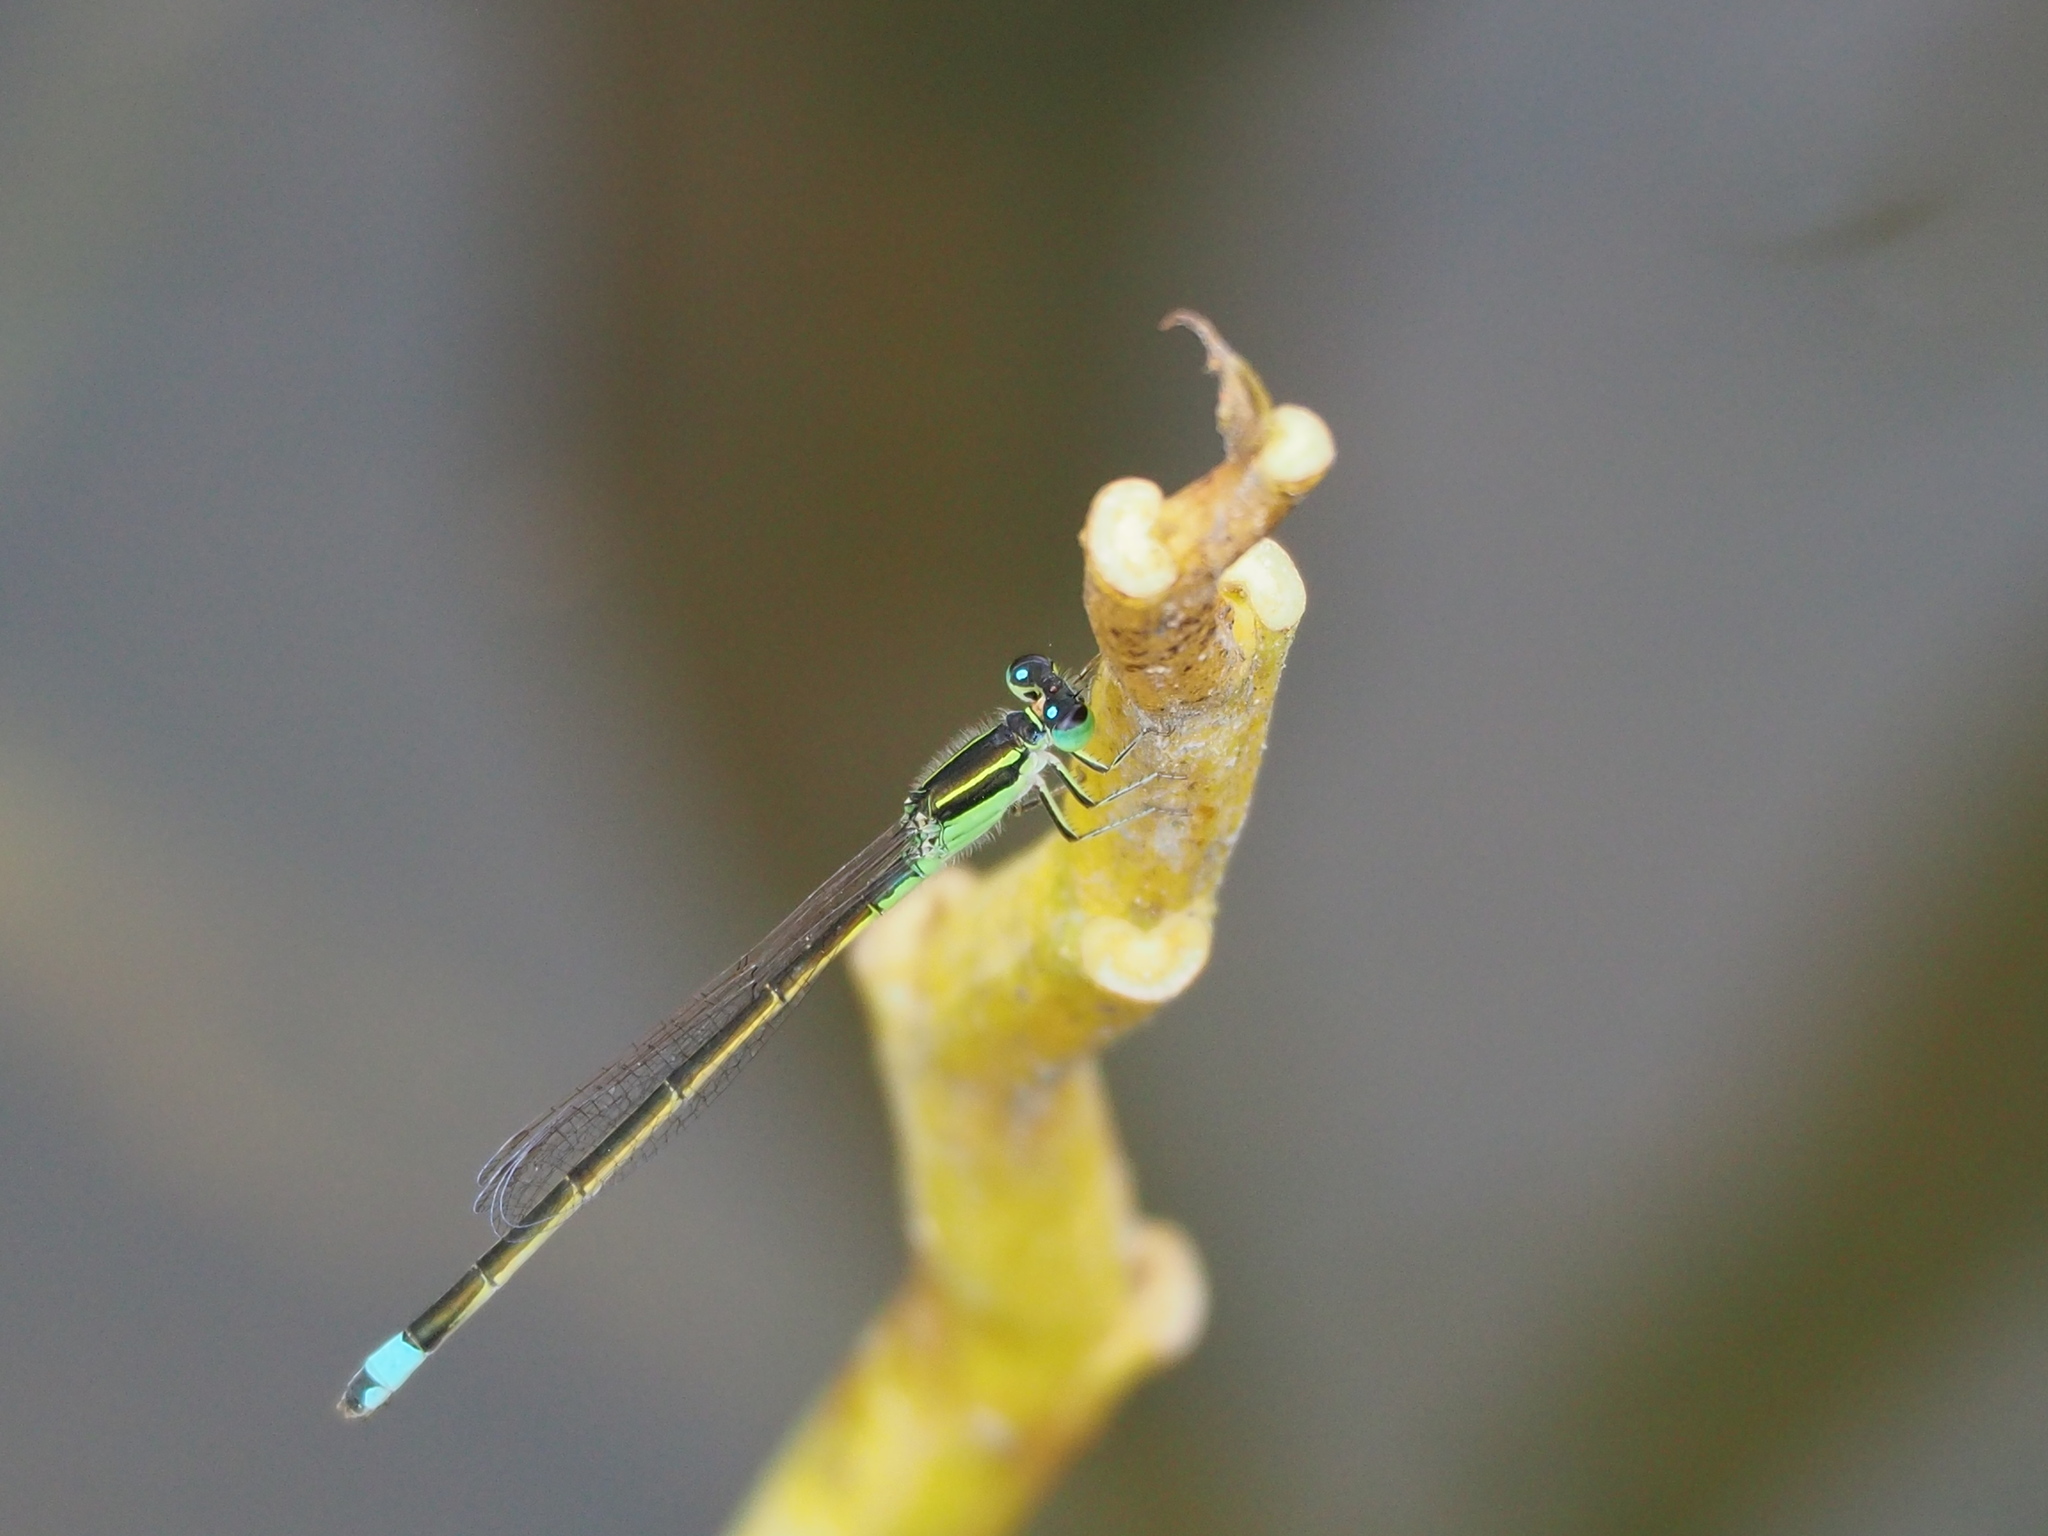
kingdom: Animalia
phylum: Arthropoda
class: Insecta
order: Odonata
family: Coenagrionidae
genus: Ischnura
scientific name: Ischnura senegalensis
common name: Tropical bluetail
